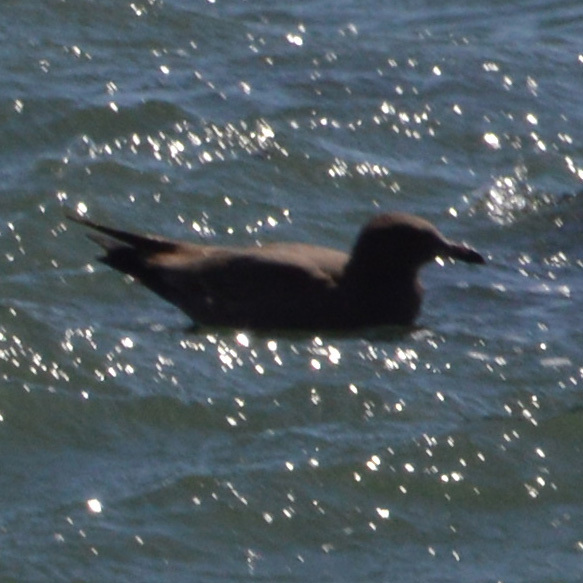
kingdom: Animalia
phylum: Chordata
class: Aves
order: Charadriiformes
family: Laridae
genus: Larus
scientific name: Larus heermanni
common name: Heermann's gull
